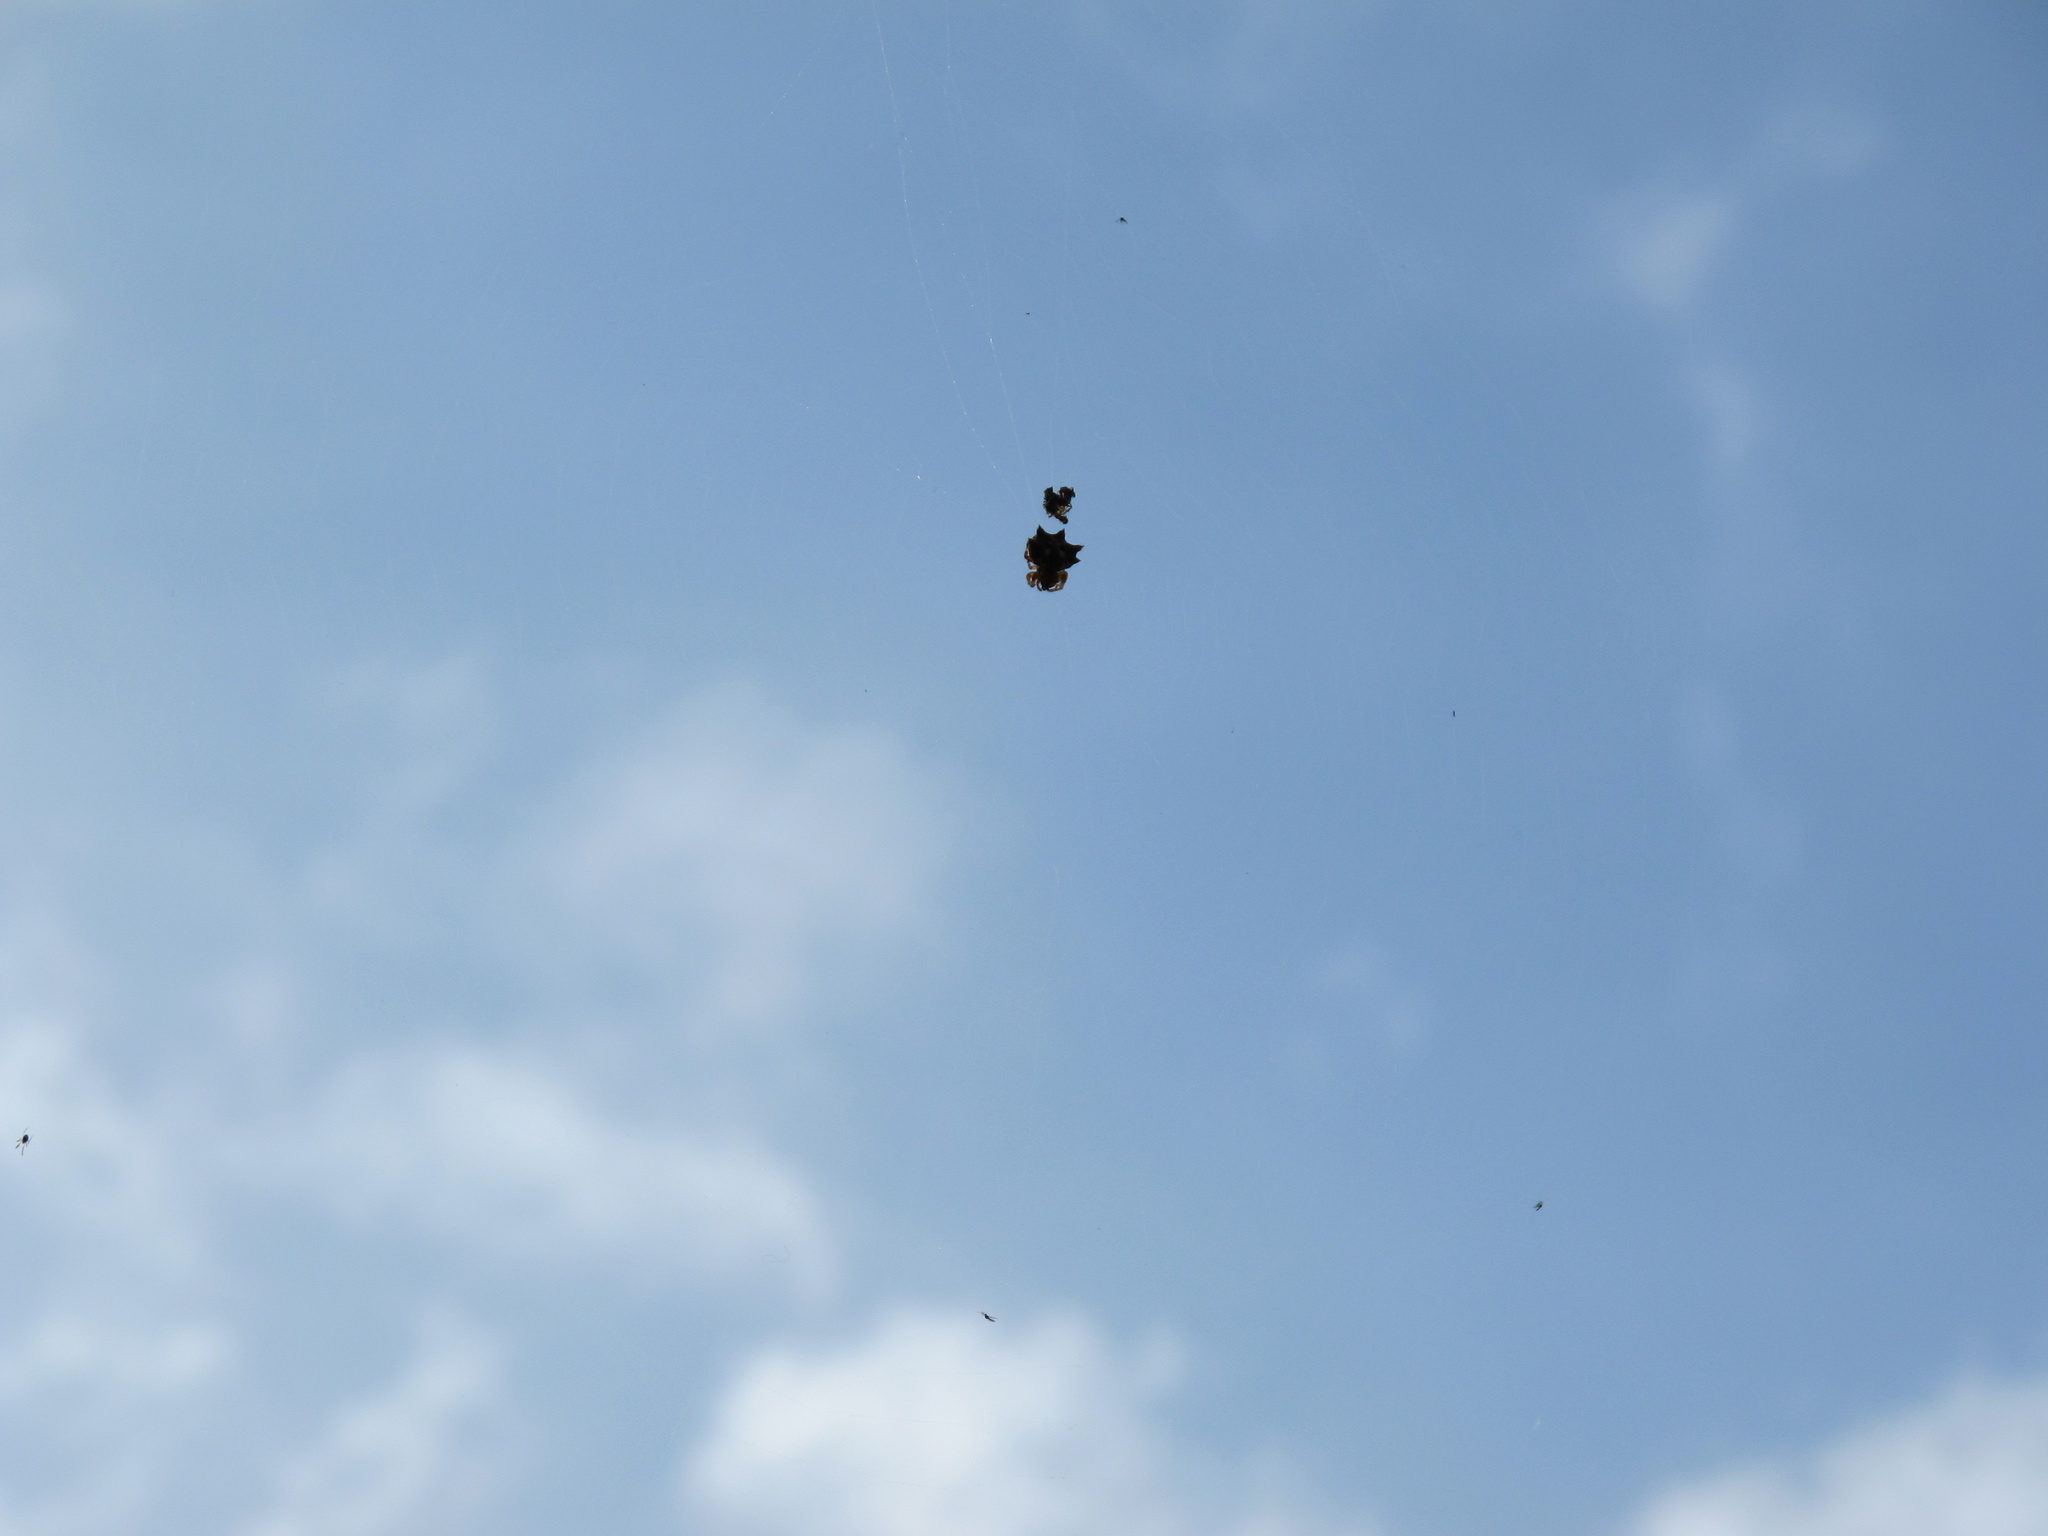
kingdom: Animalia
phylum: Arthropoda
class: Arachnida
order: Araneae
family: Araneidae
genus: Thelacantha
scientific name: Thelacantha brevispina
